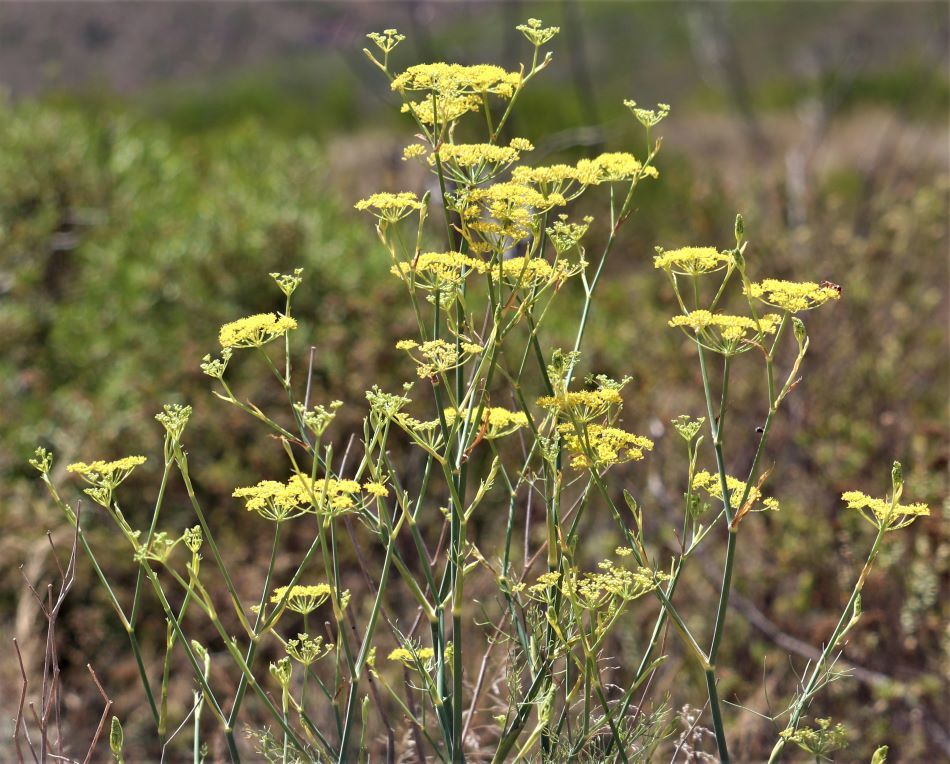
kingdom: Plantae
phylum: Tracheophyta
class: Magnoliopsida
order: Apiales
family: Apiaceae
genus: Foeniculum
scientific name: Foeniculum vulgare
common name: Fennel
